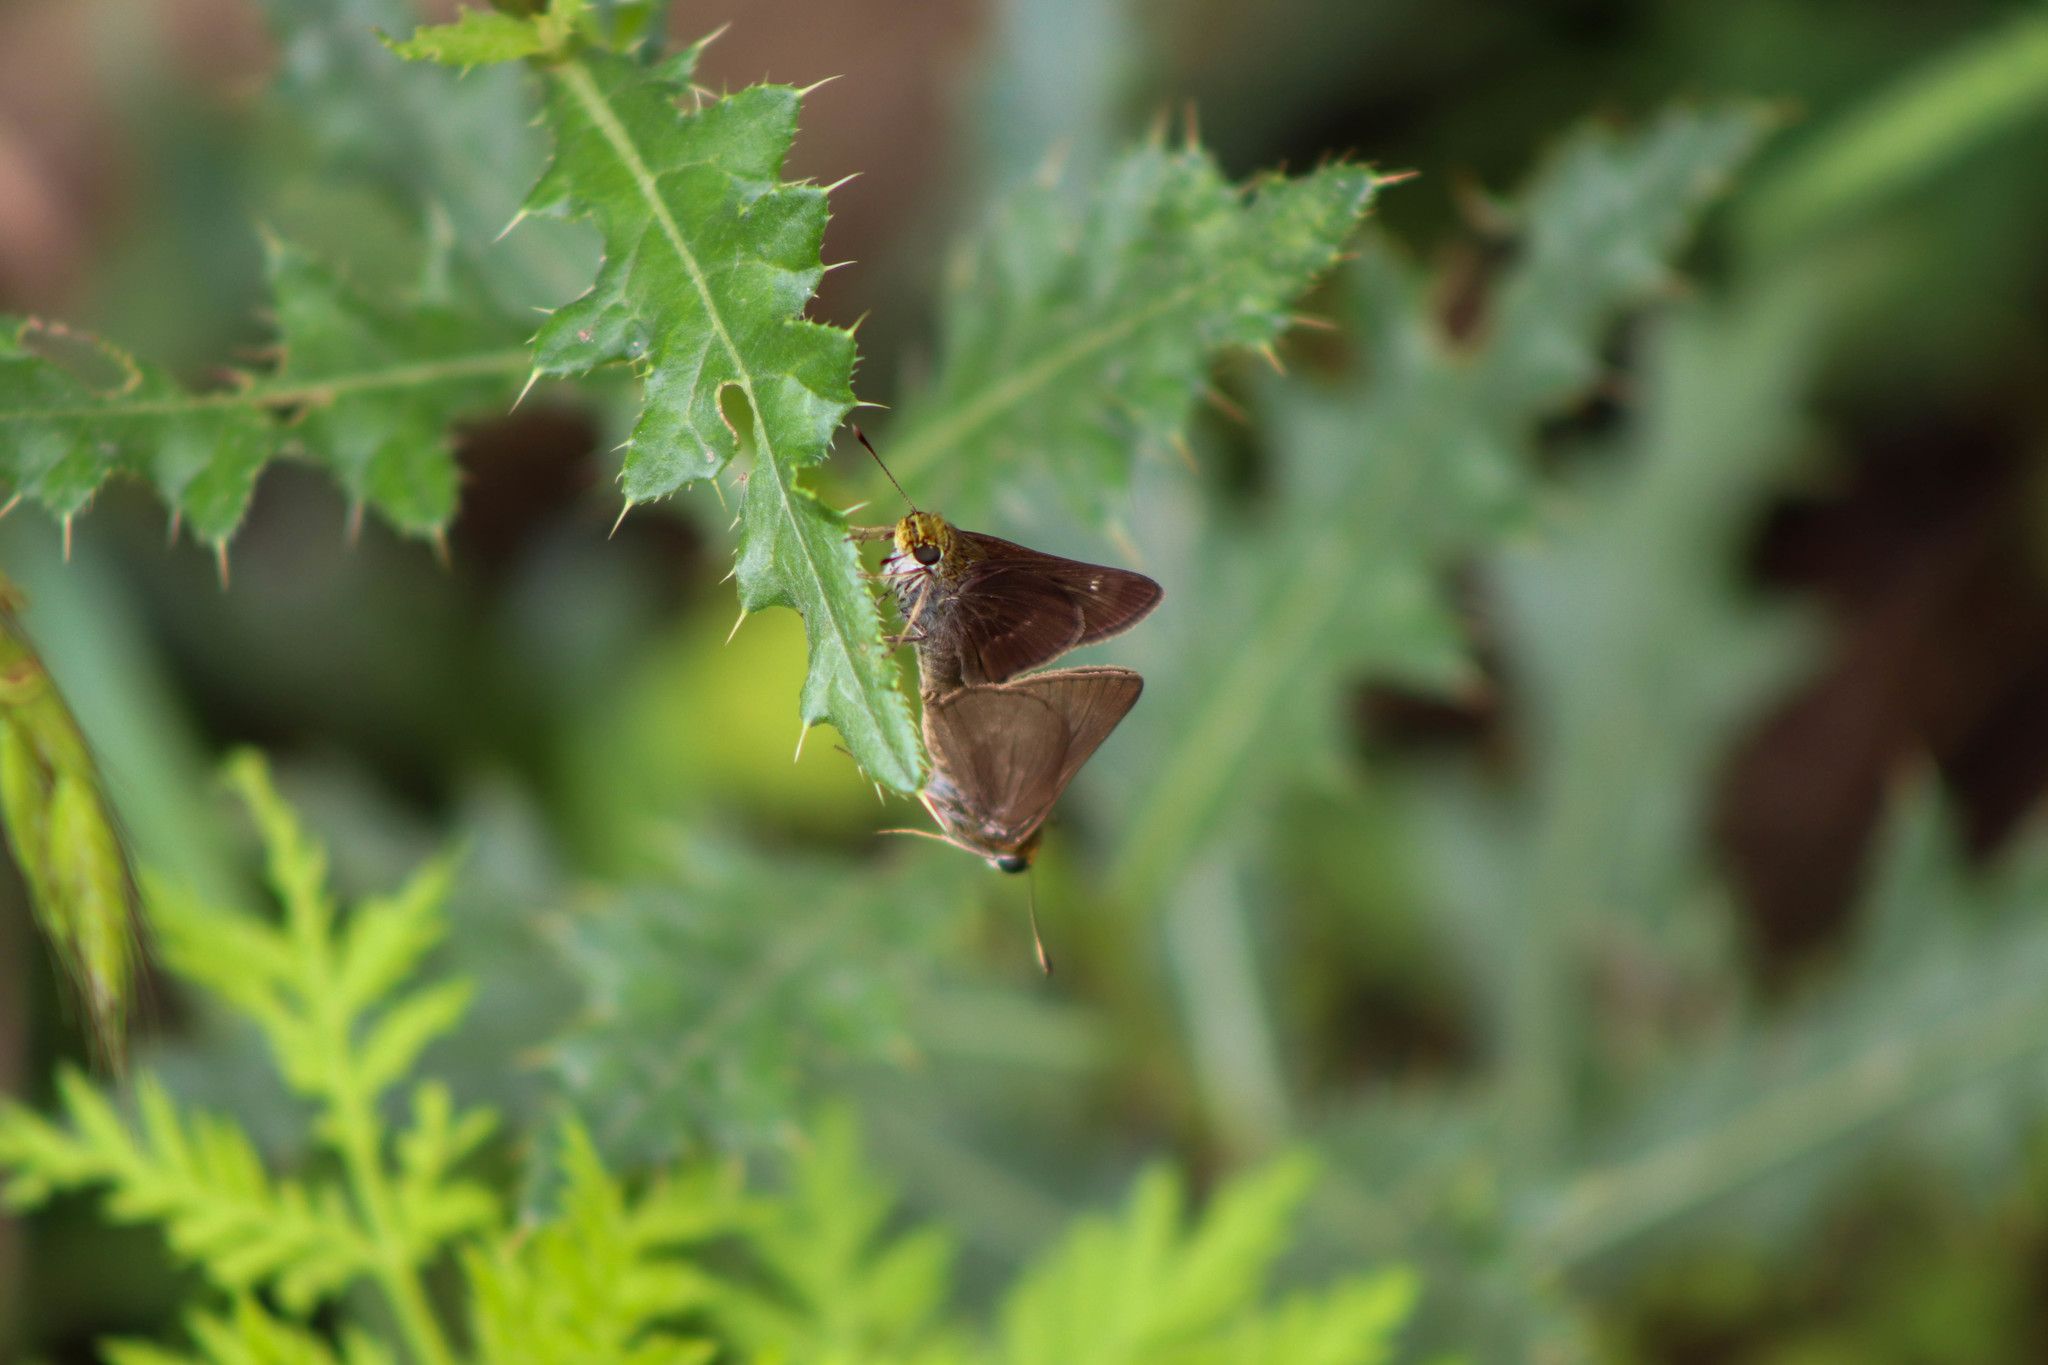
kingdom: Animalia
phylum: Arthropoda
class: Insecta
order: Lepidoptera
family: Hesperiidae
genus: Euphyes
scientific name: Euphyes vestris
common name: Dun skipper
